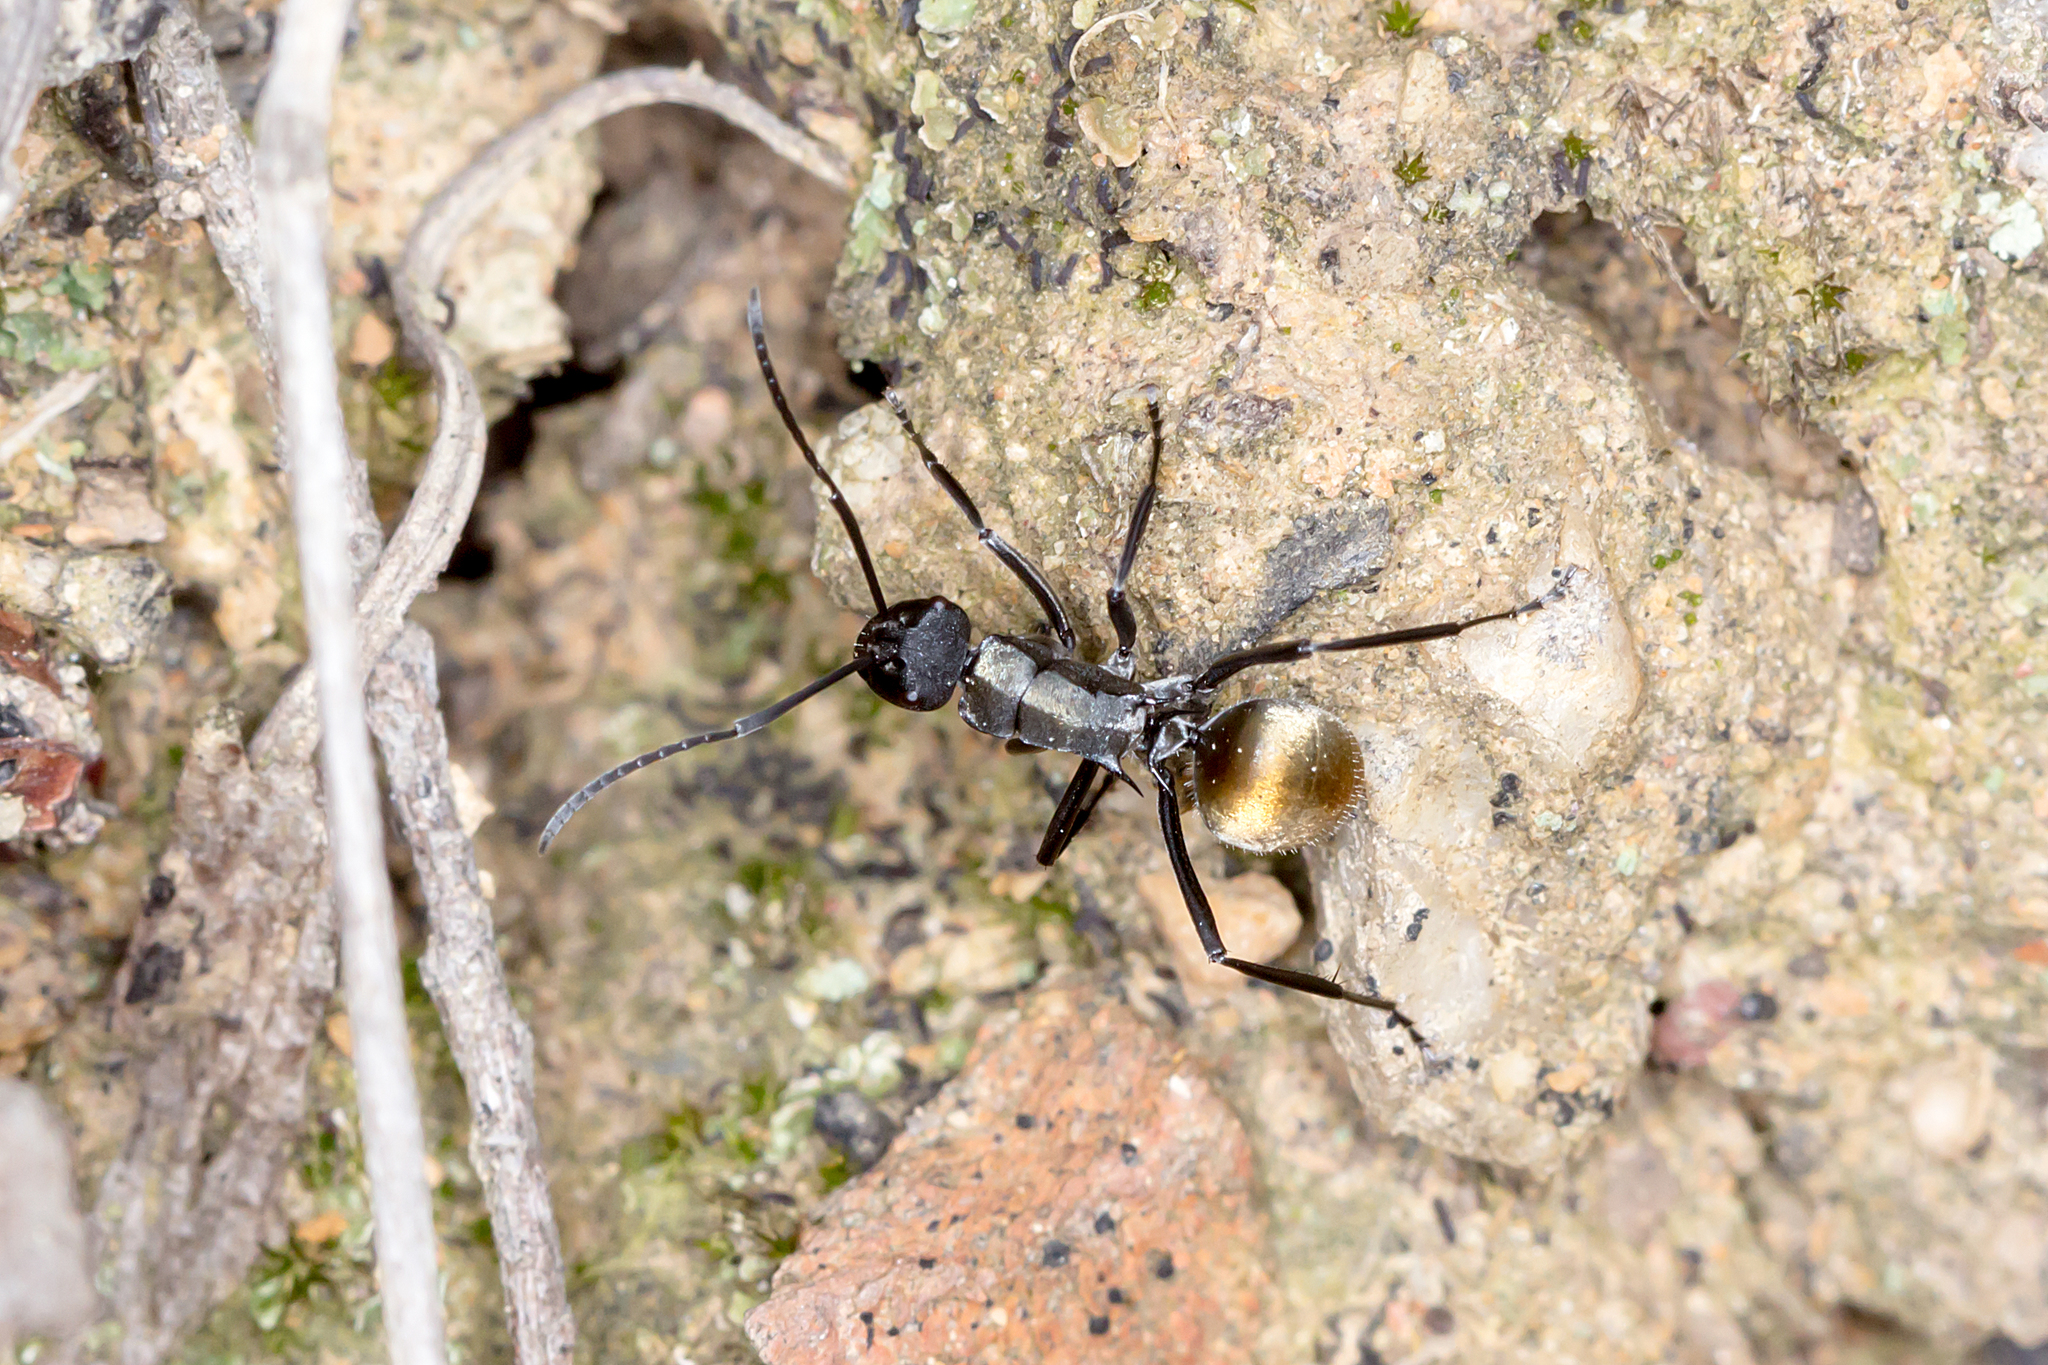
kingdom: Animalia
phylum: Arthropoda
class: Insecta
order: Hymenoptera
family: Formicidae
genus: Polyrhachis
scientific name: Polyrhachis ammon
